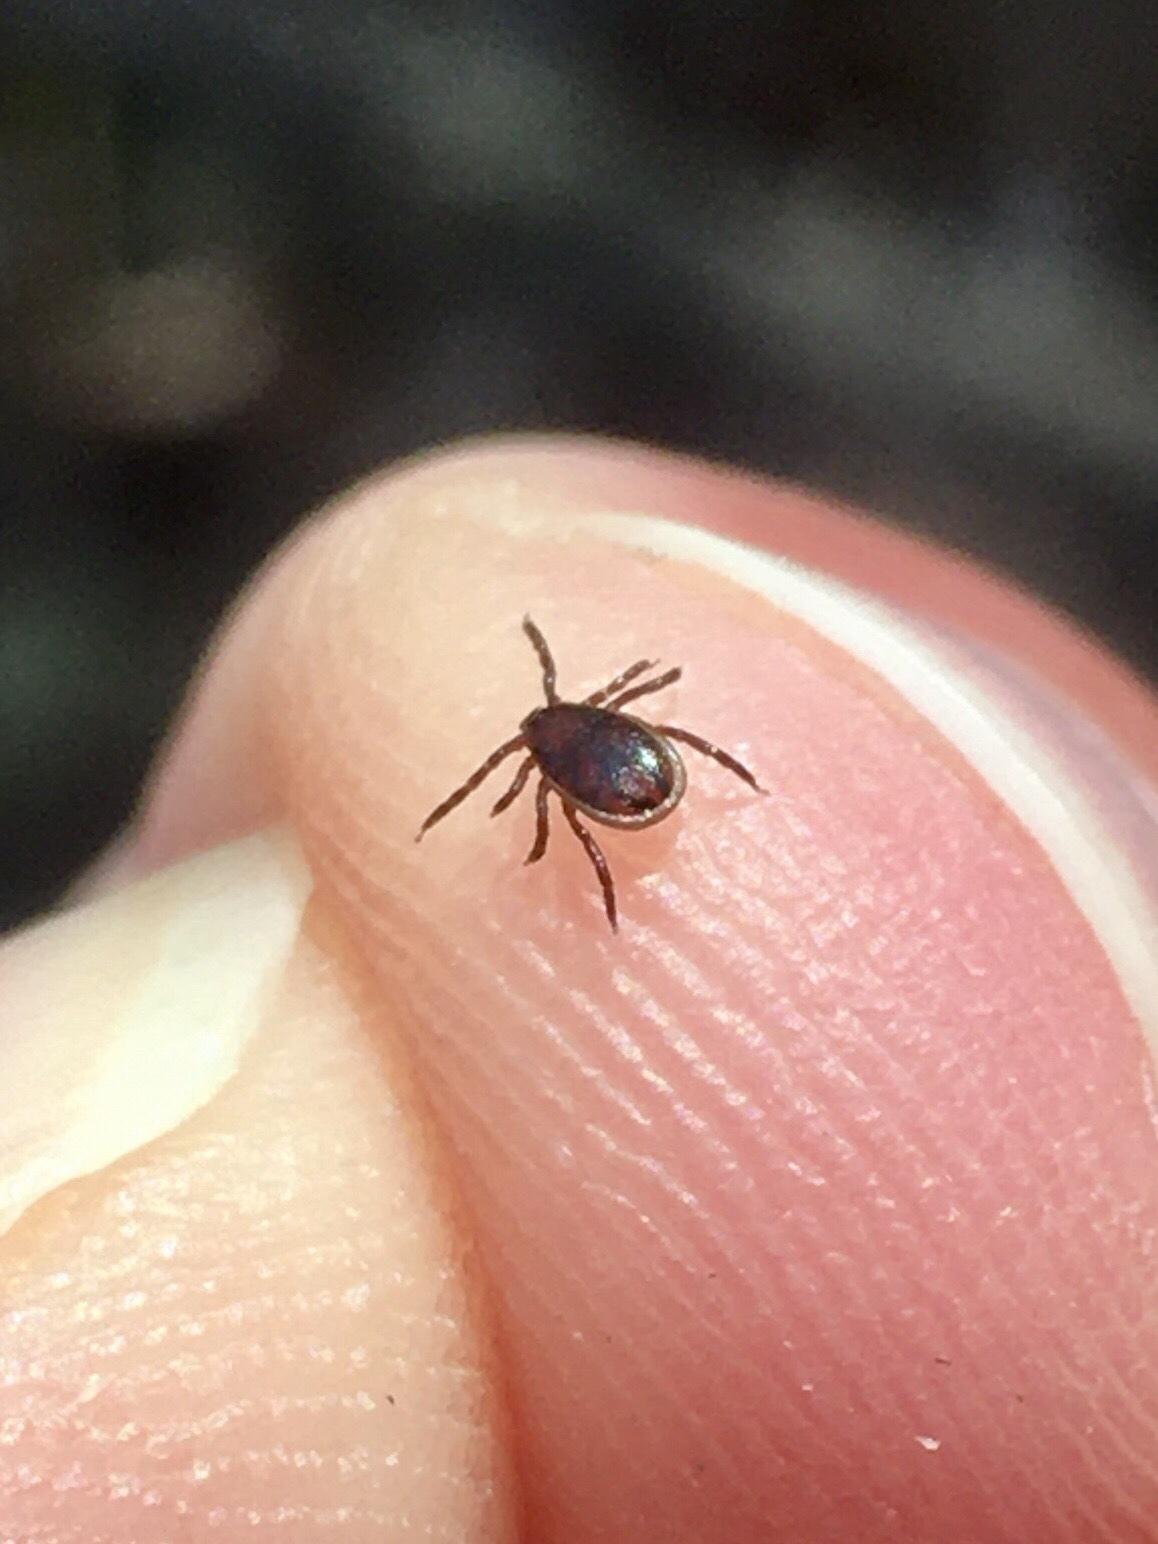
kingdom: Animalia
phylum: Arthropoda
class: Arachnida
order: Ixodida
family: Ixodidae
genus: Ixodes
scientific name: Ixodes scapularis
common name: Black legged tick
